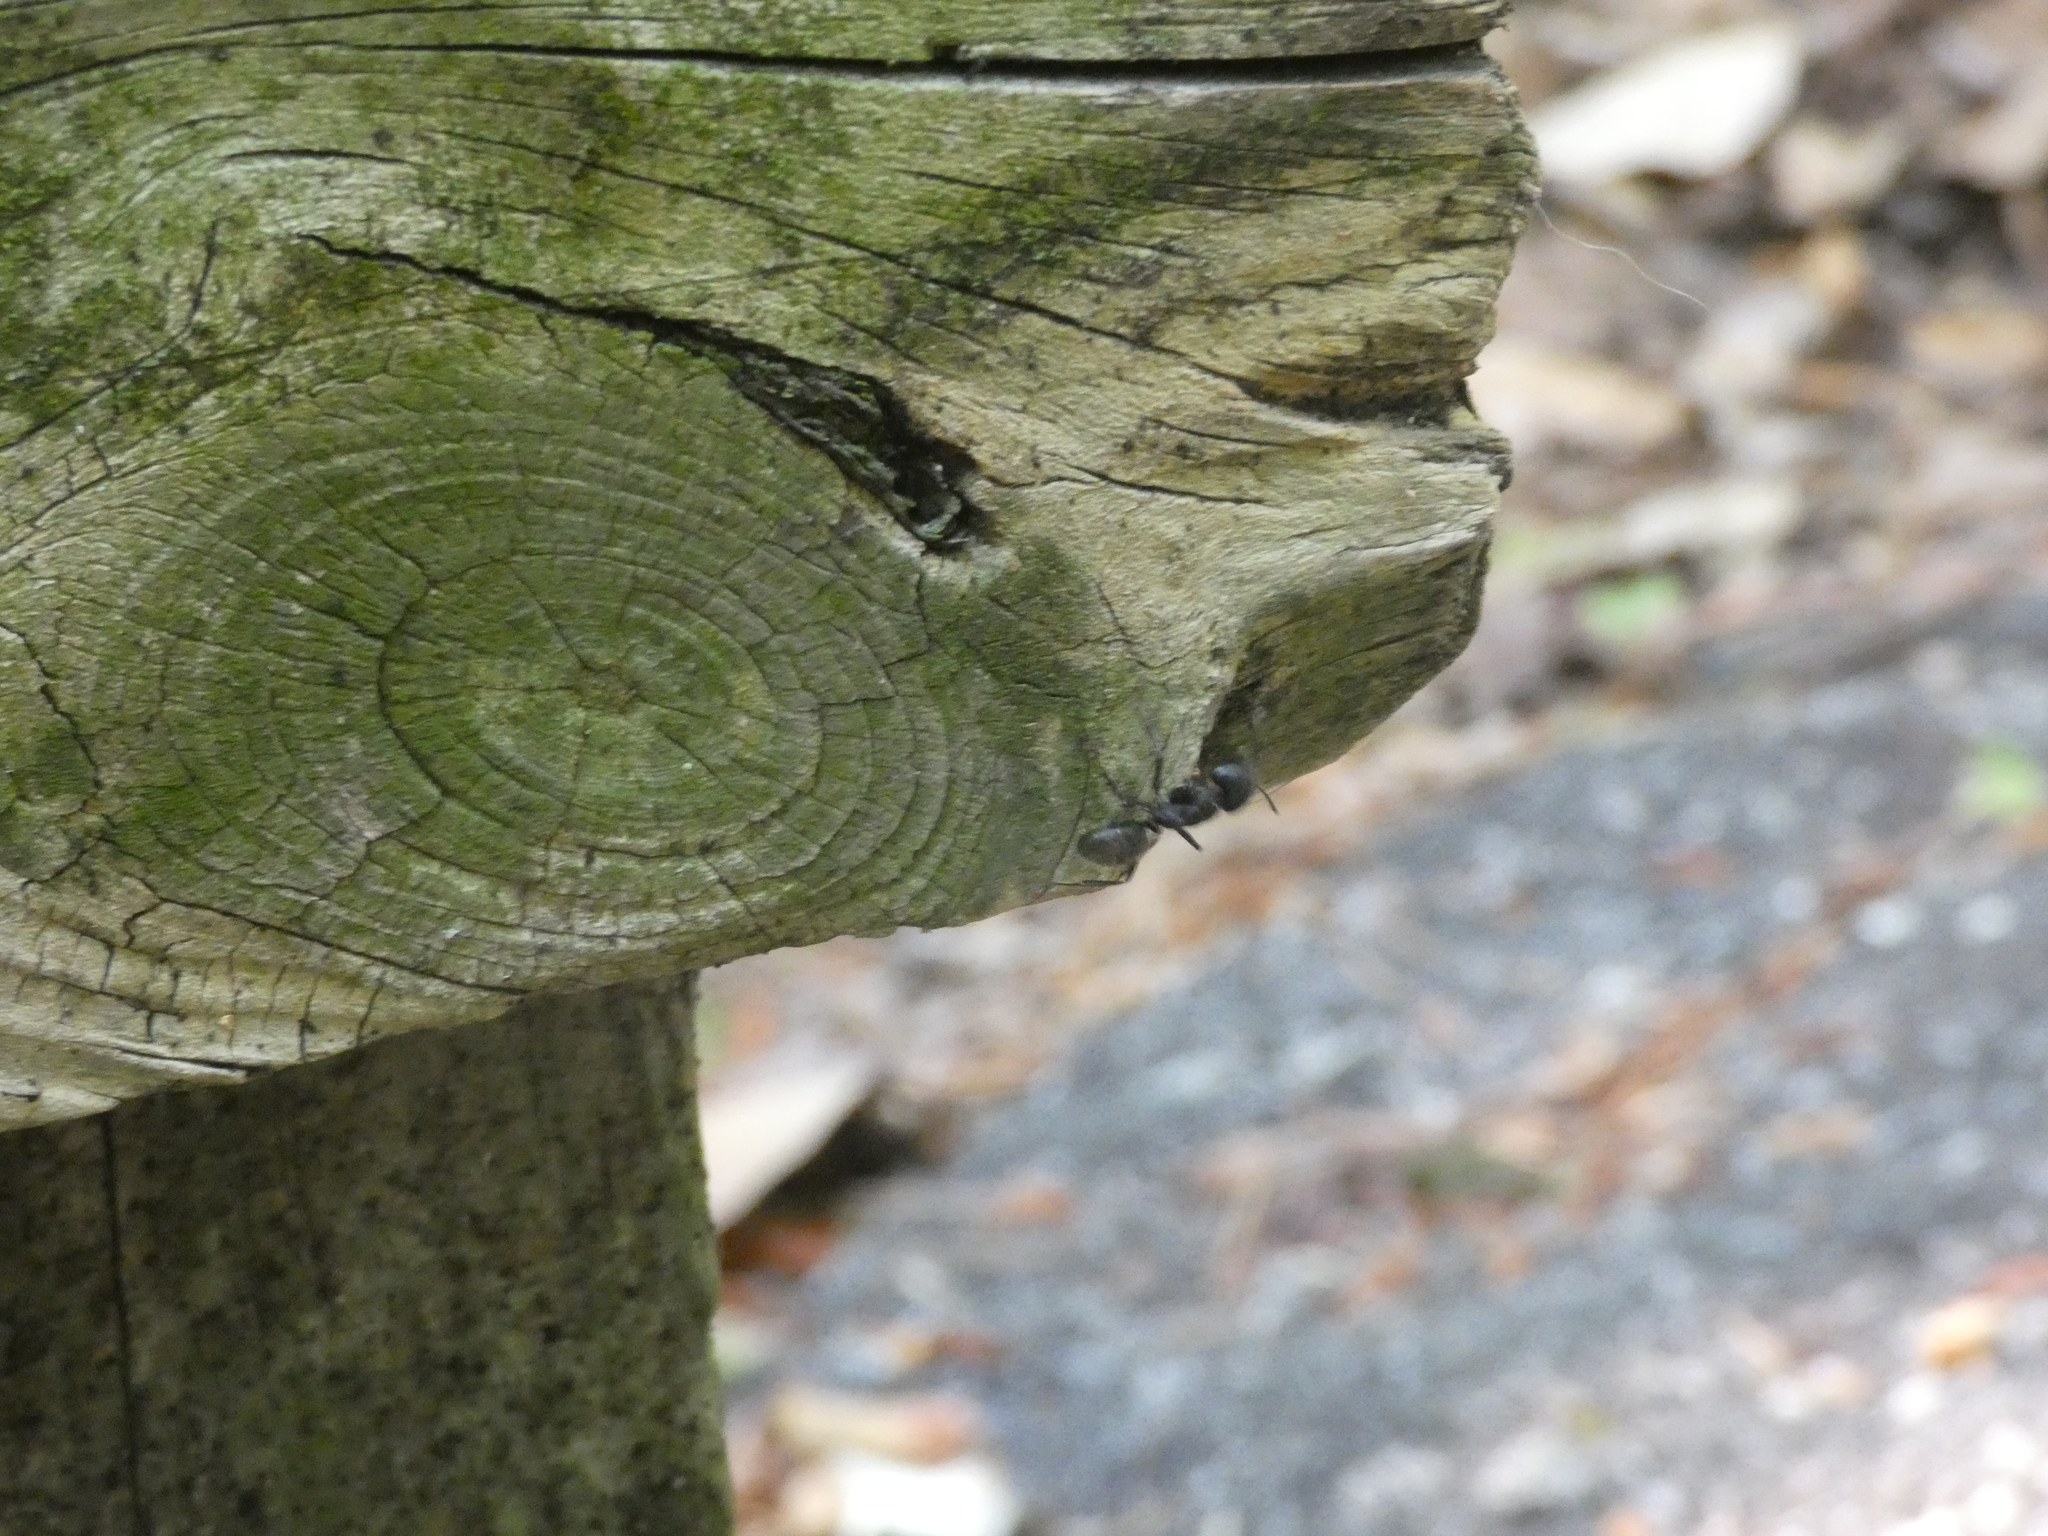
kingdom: Animalia
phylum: Arthropoda
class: Insecta
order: Hymenoptera
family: Formicidae
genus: Camponotus
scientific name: Camponotus pennsylvanicus
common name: Black carpenter ant
